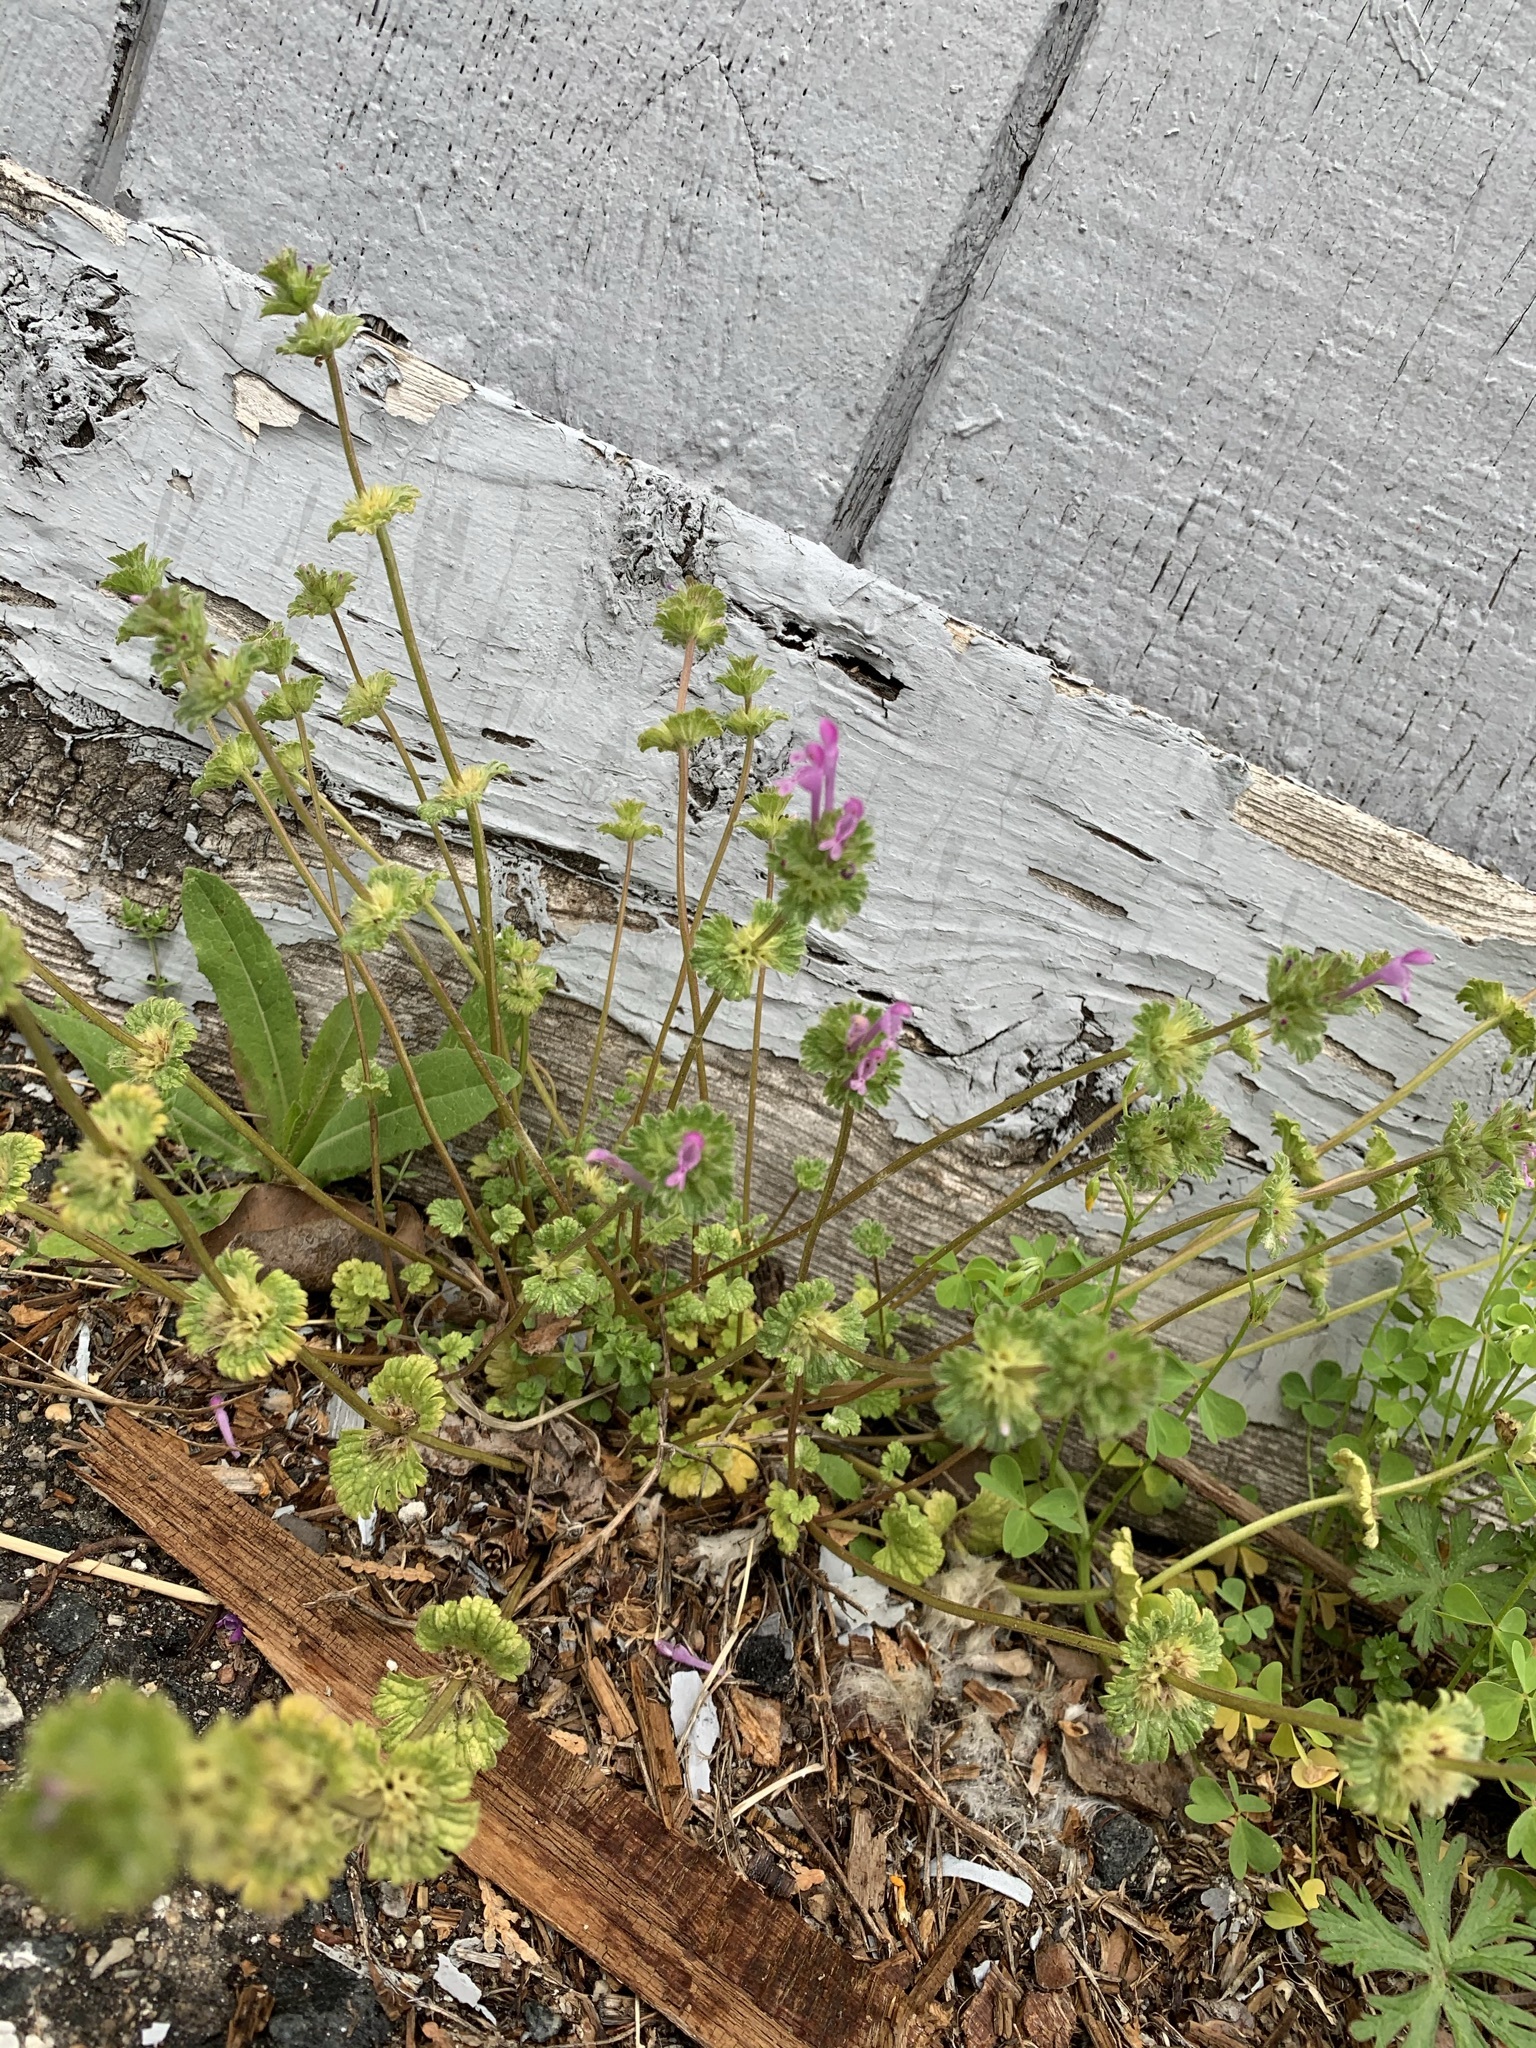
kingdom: Plantae
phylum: Tracheophyta
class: Magnoliopsida
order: Lamiales
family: Lamiaceae
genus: Lamium
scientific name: Lamium amplexicaule
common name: Henbit dead-nettle
